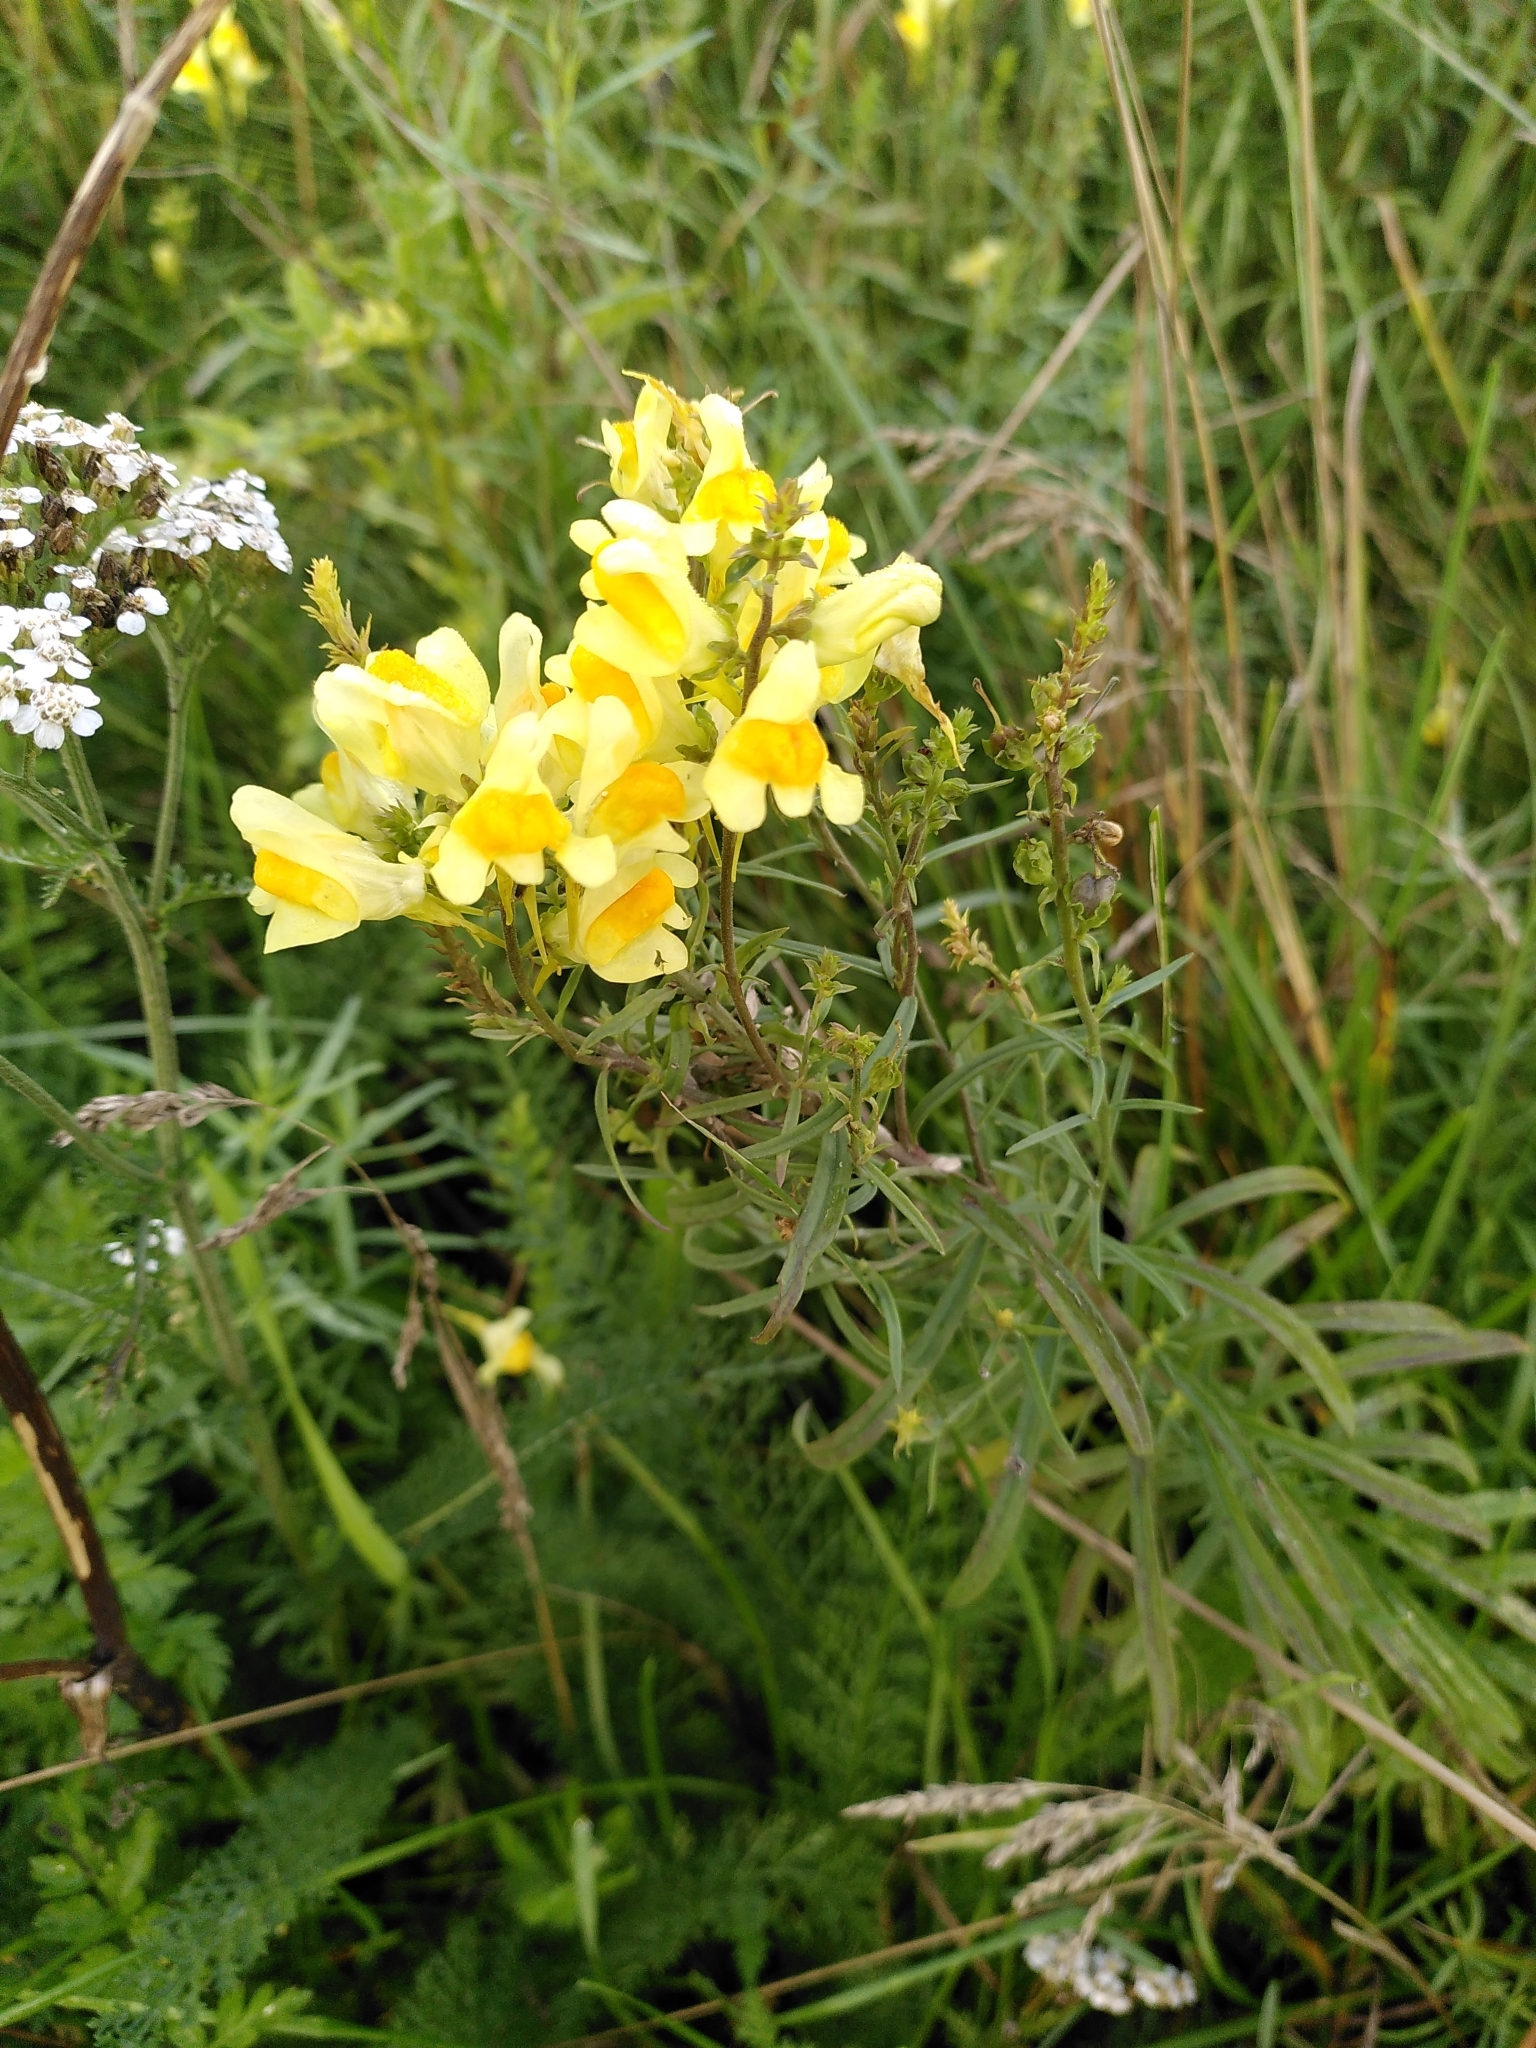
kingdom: Plantae
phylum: Tracheophyta
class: Magnoliopsida
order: Lamiales
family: Plantaginaceae
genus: Linaria
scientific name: Linaria vulgaris
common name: Butter and eggs
